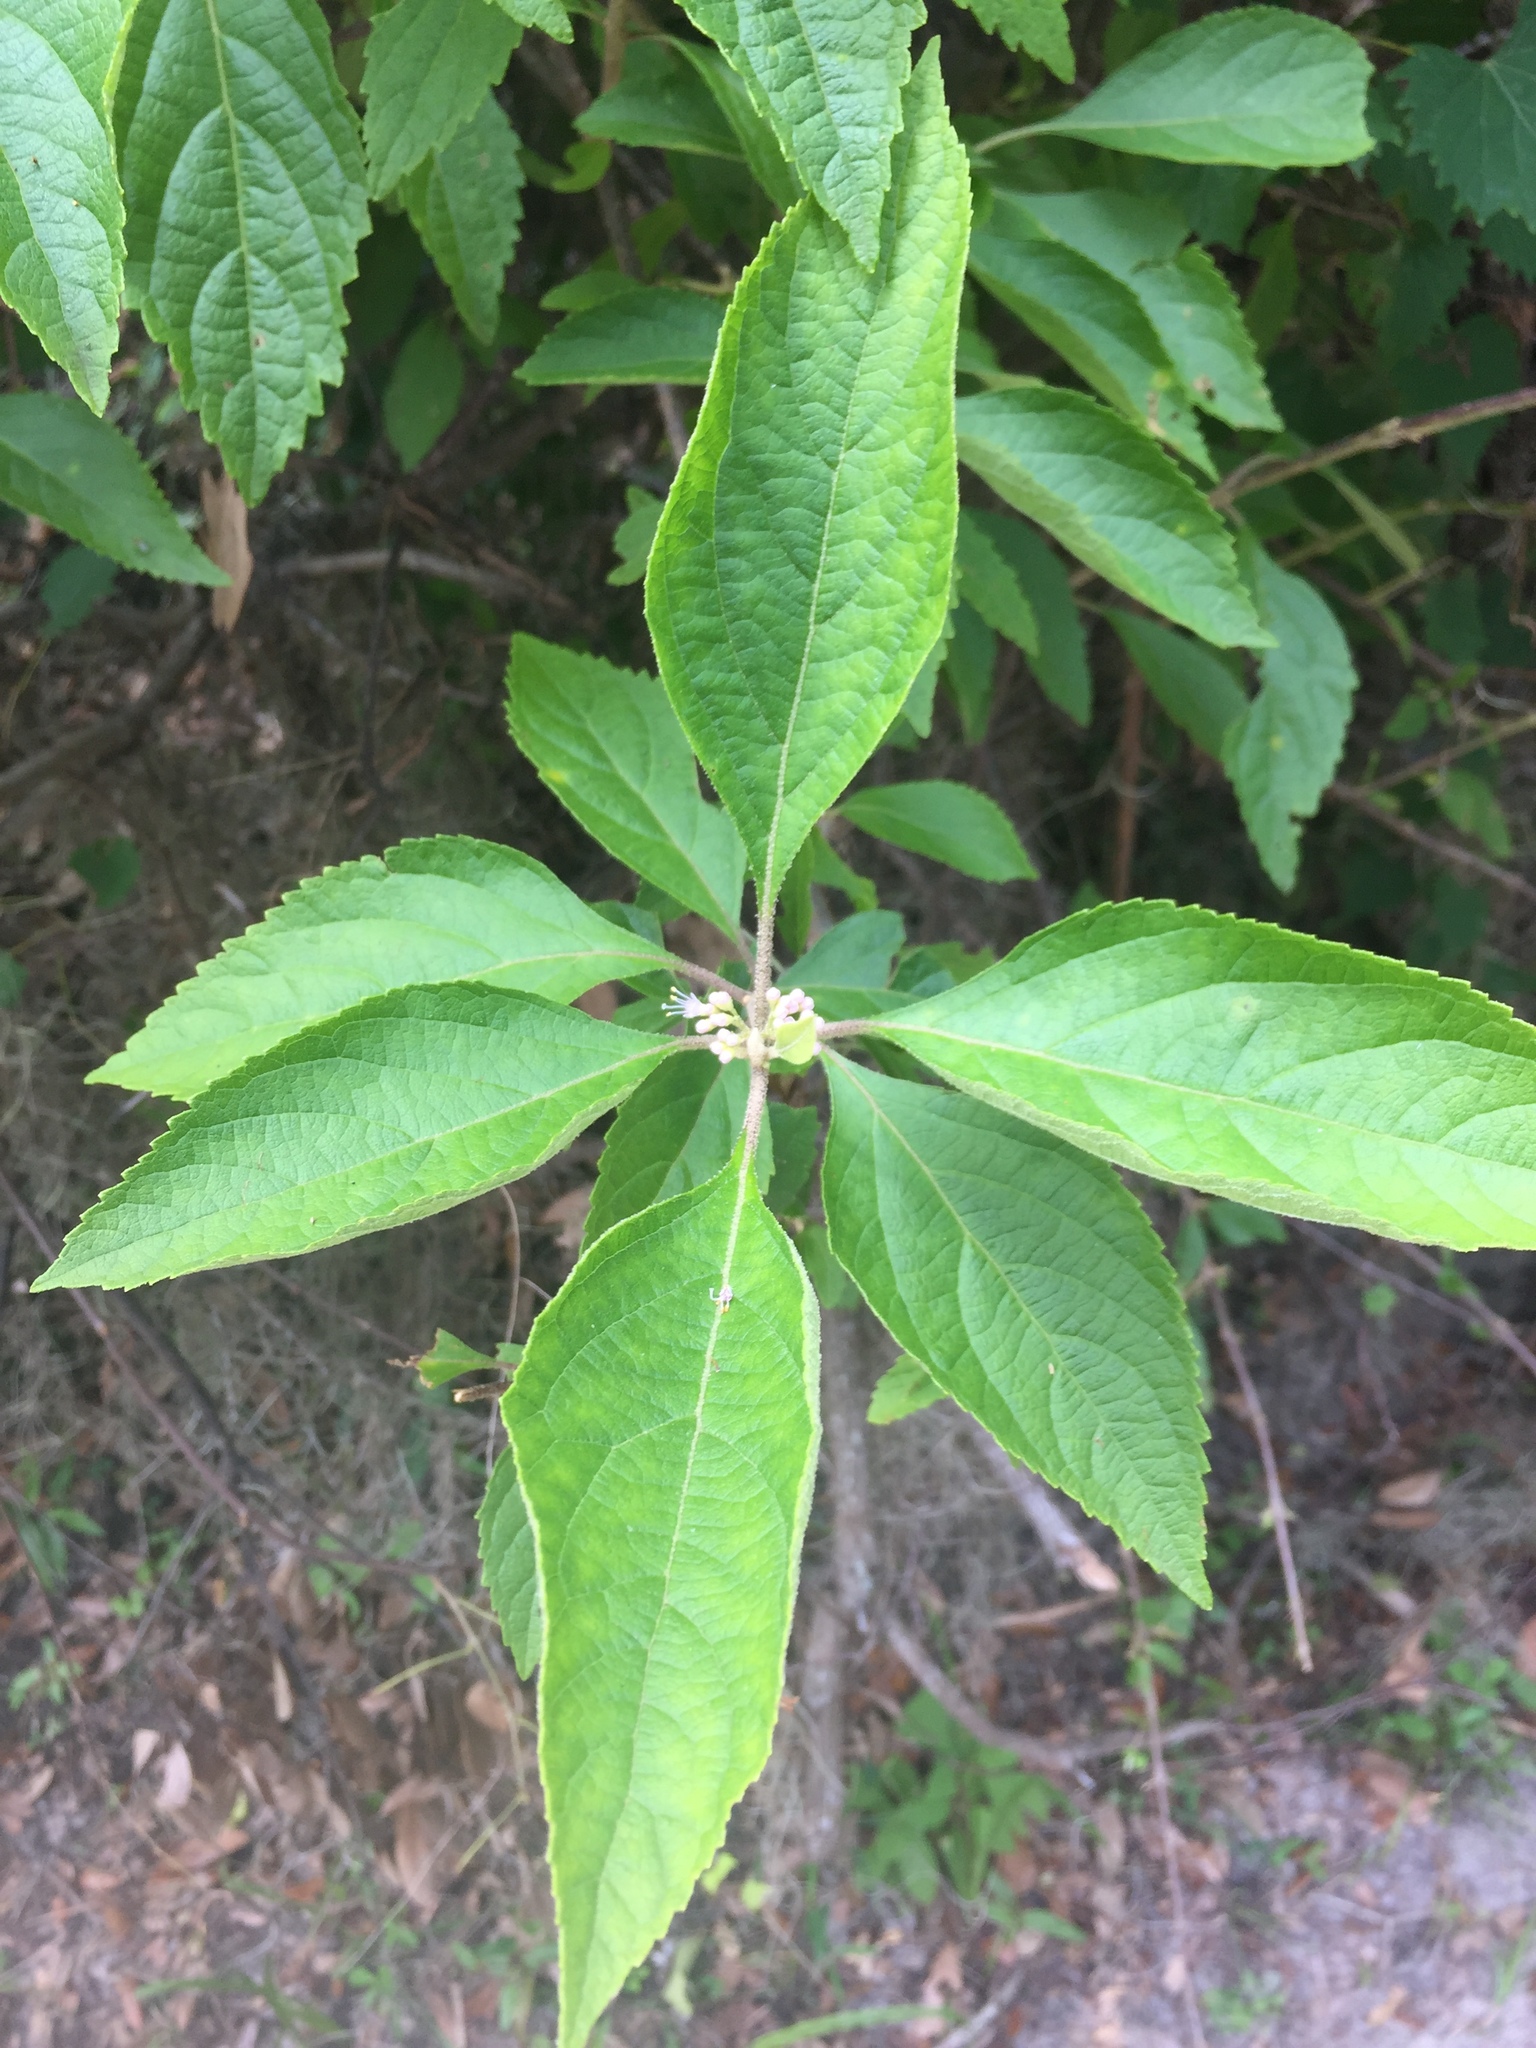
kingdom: Plantae
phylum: Tracheophyta
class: Magnoliopsida
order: Lamiales
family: Lamiaceae
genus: Callicarpa
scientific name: Callicarpa americana
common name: American beautyberry
